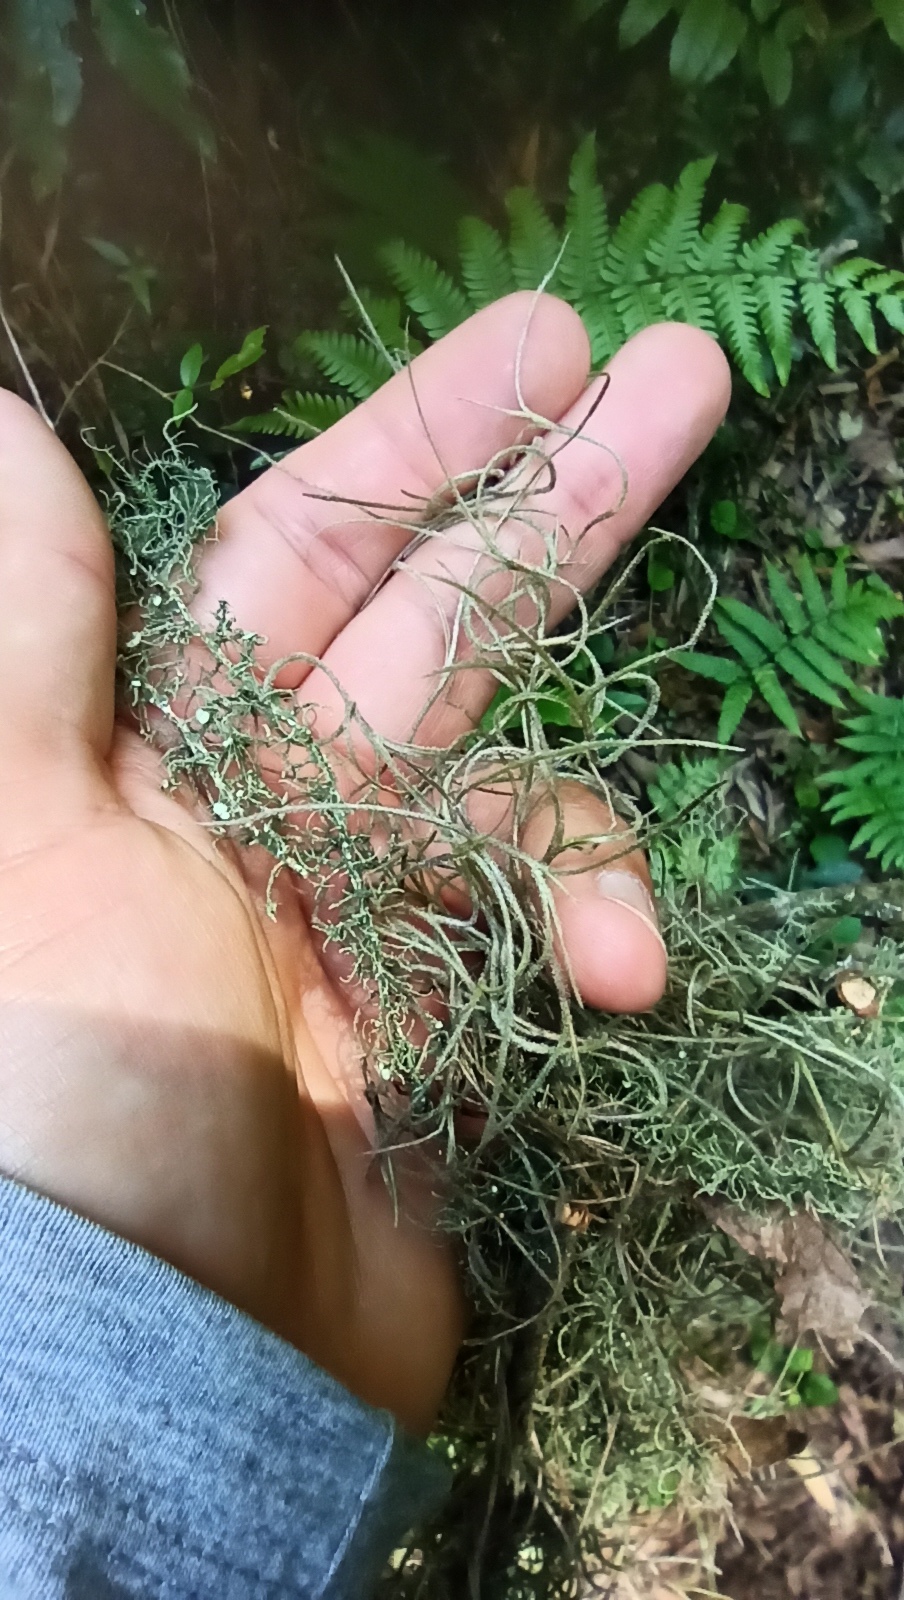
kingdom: Plantae
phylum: Tracheophyta
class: Liliopsida
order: Poales
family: Bromeliaceae
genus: Tillandsia
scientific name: Tillandsia usneoides
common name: Spanish moss
